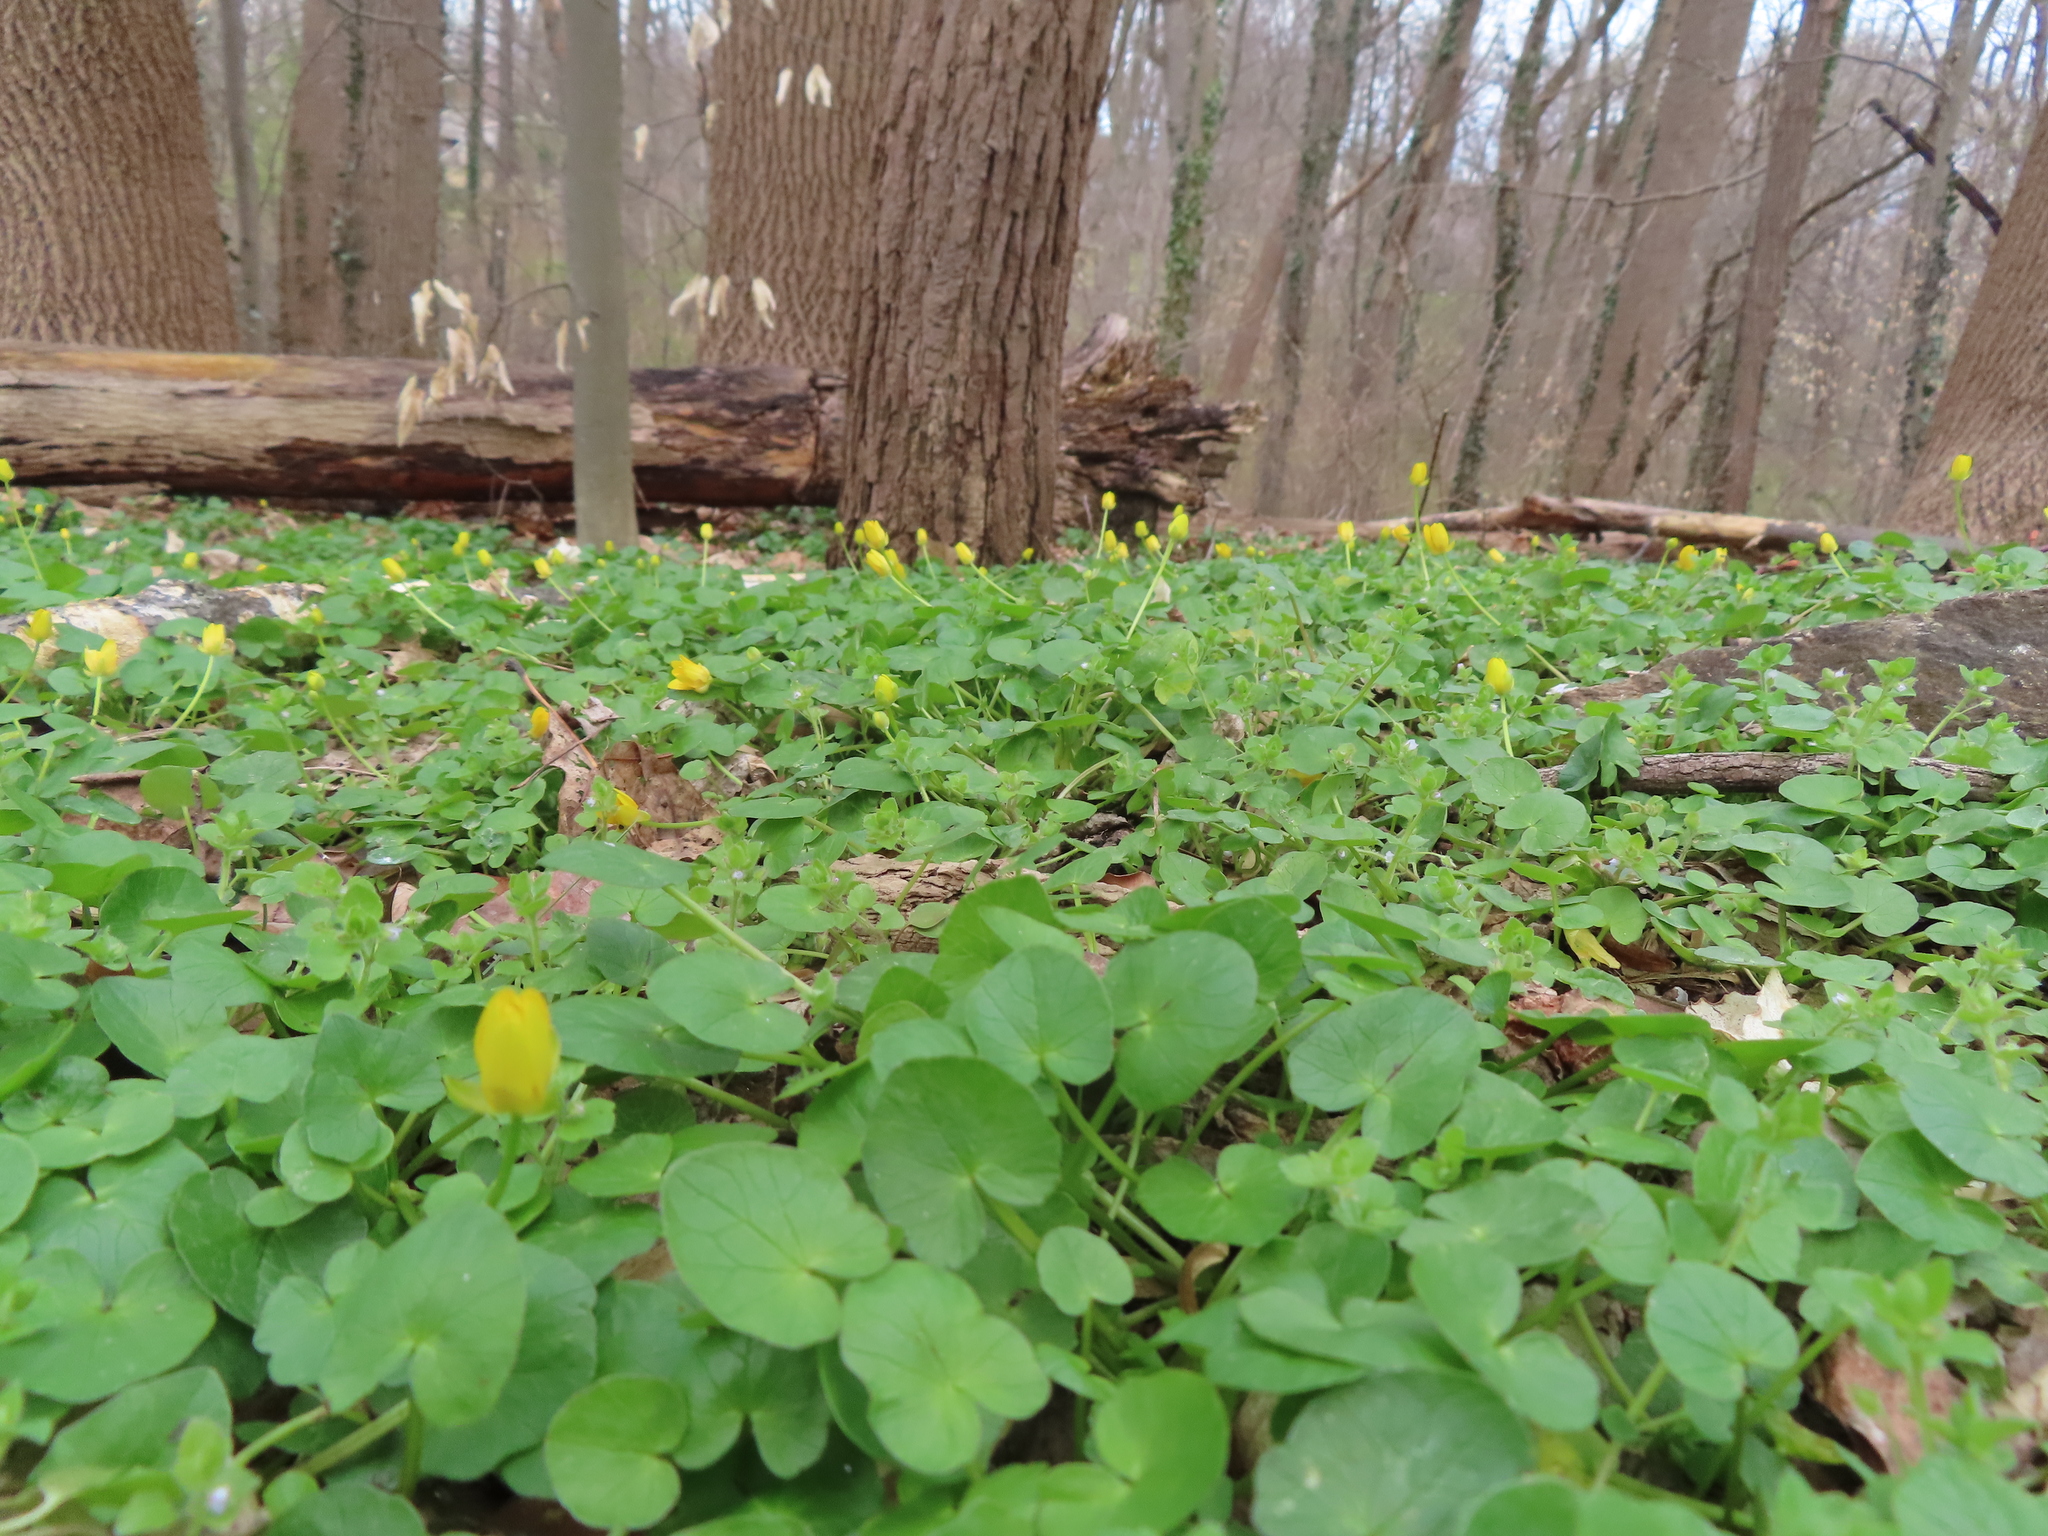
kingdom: Plantae
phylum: Tracheophyta
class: Magnoliopsida
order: Ranunculales
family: Ranunculaceae
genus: Ficaria
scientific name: Ficaria verna
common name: Lesser celandine
